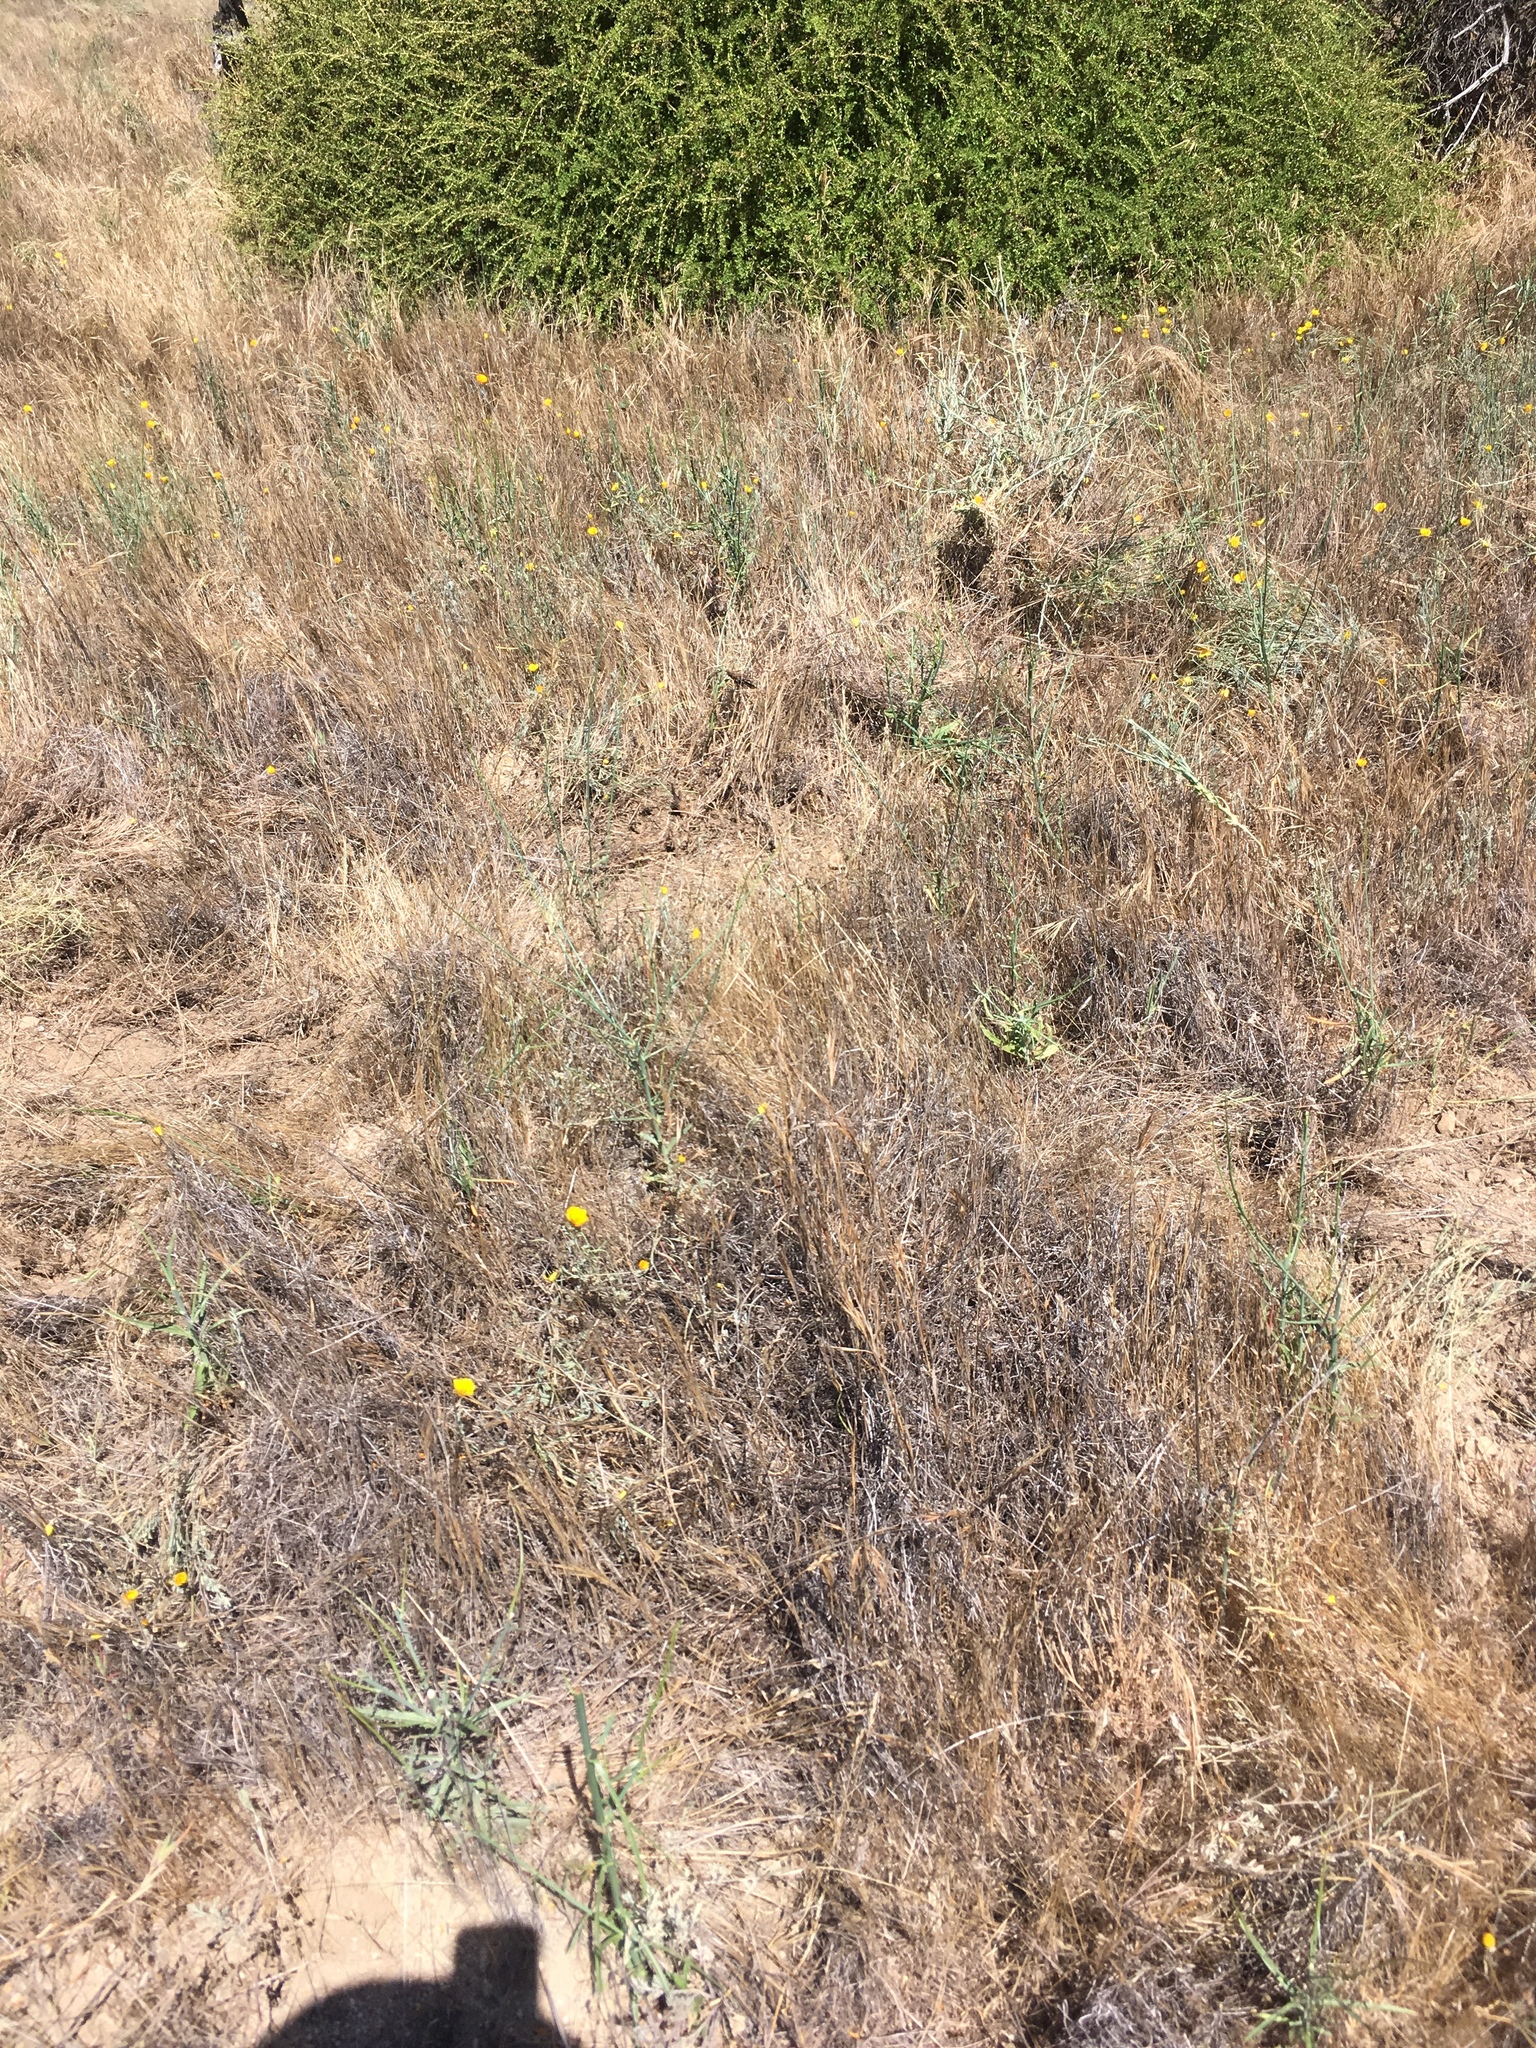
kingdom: Plantae
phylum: Tracheophyta
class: Magnoliopsida
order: Asterales
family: Asteraceae
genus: Centaurea
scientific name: Centaurea solstitialis
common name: Yellow star-thistle
